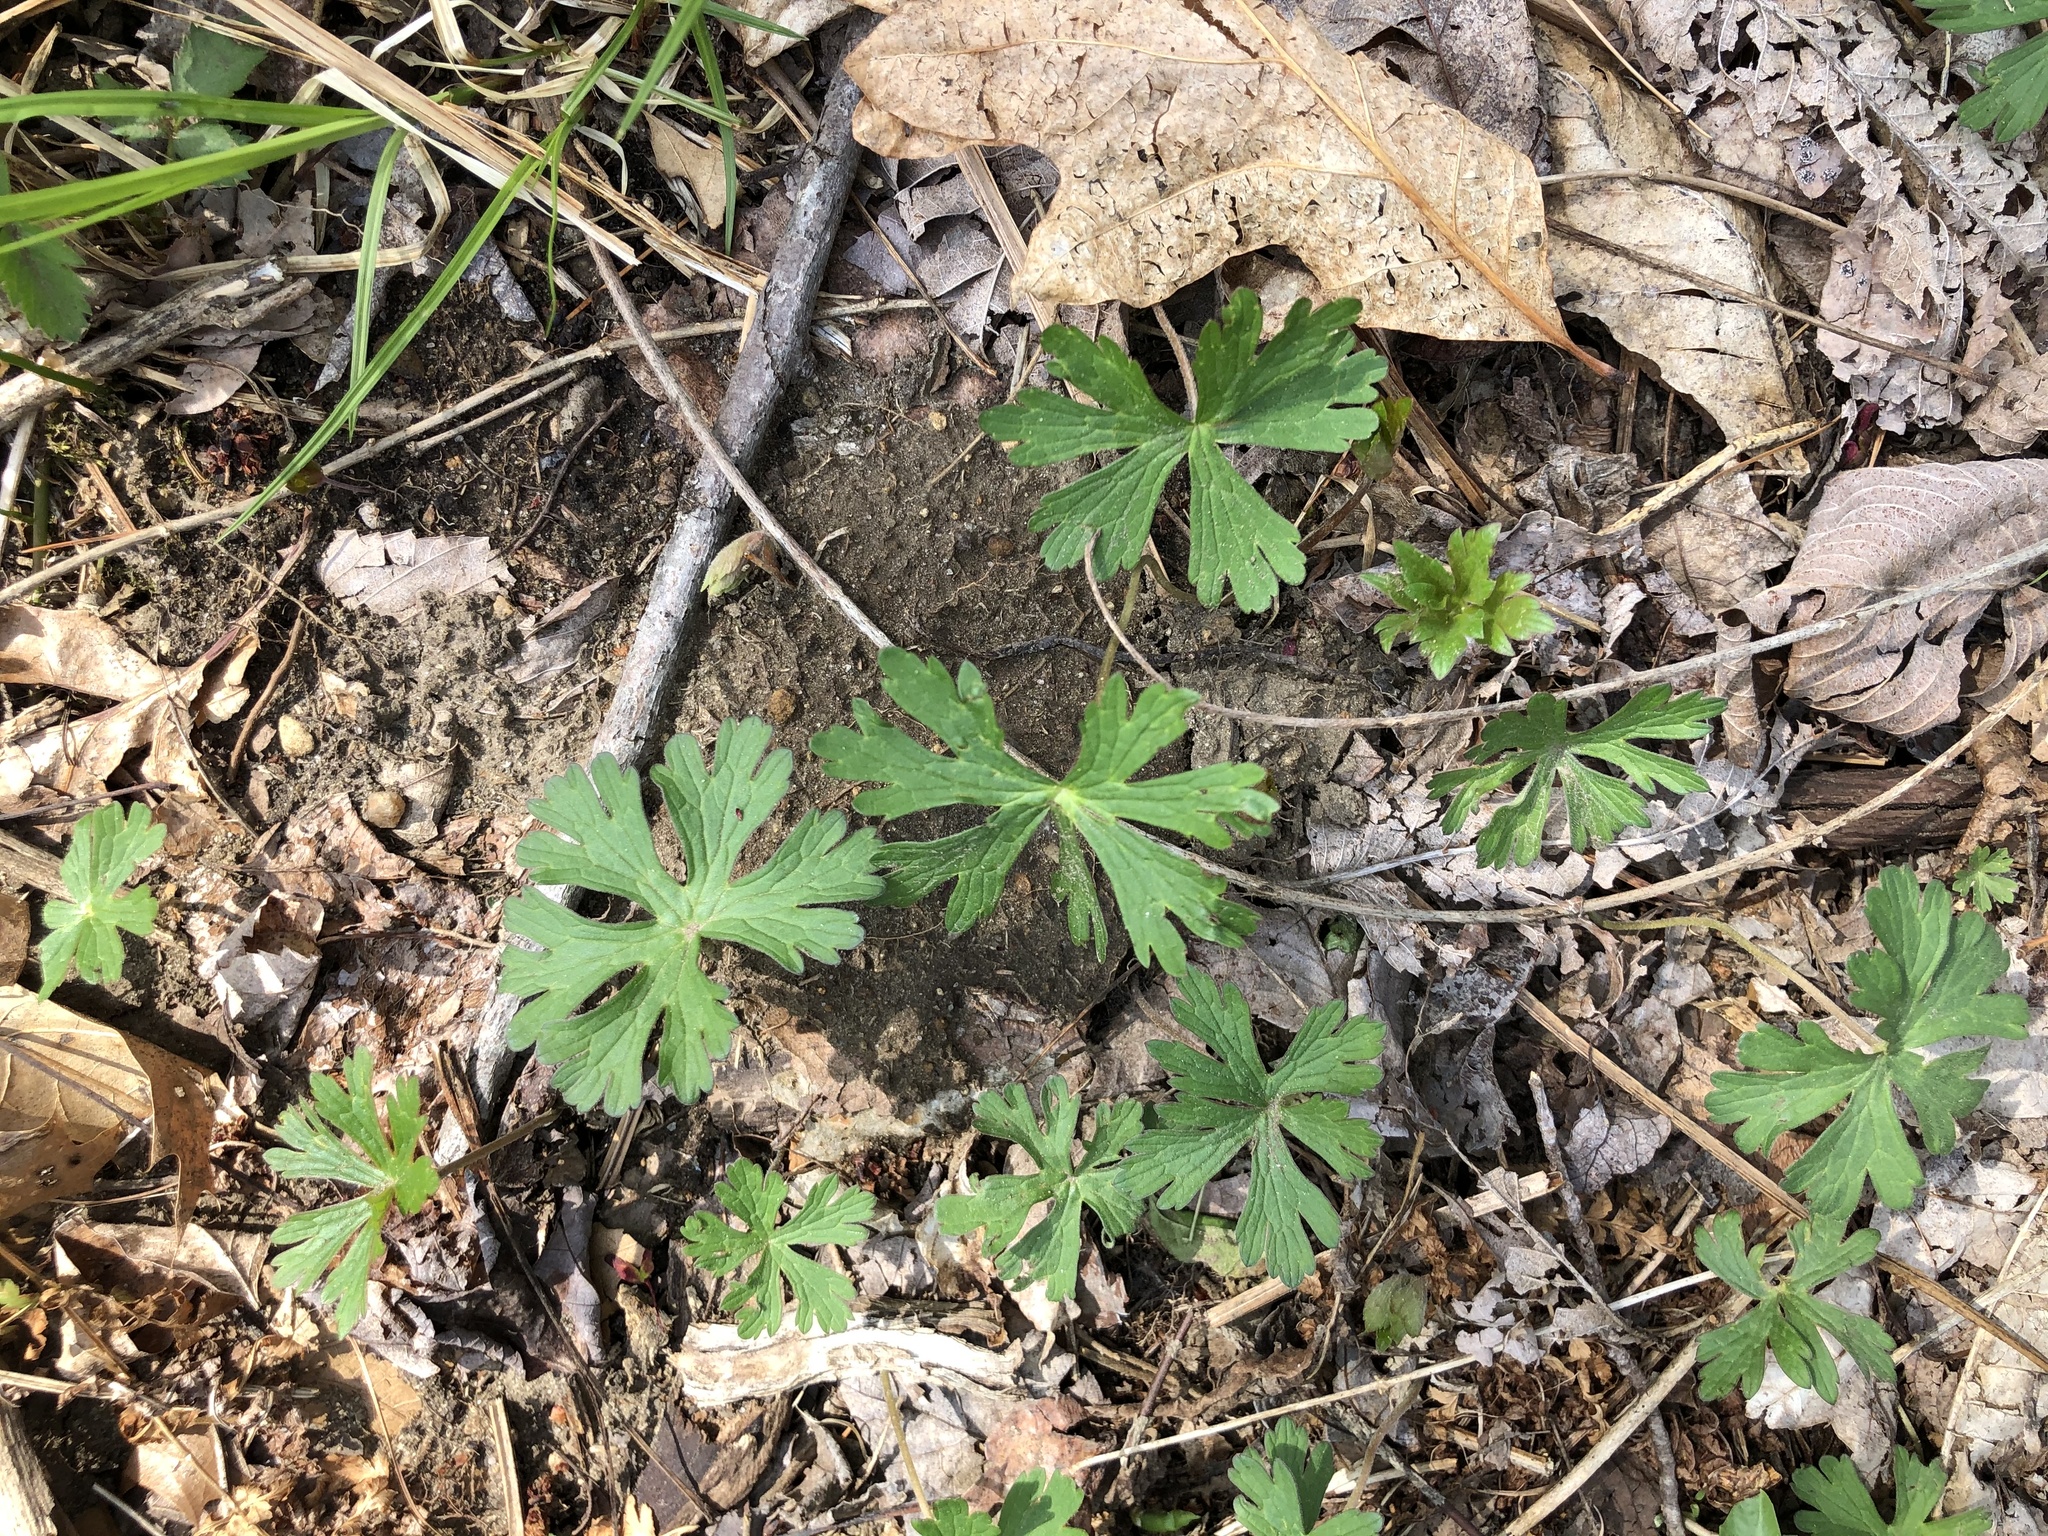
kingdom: Plantae
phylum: Tracheophyta
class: Magnoliopsida
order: Geraniales
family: Geraniaceae
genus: Geranium
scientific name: Geranium carolinianum
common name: Carolina crane's-bill
